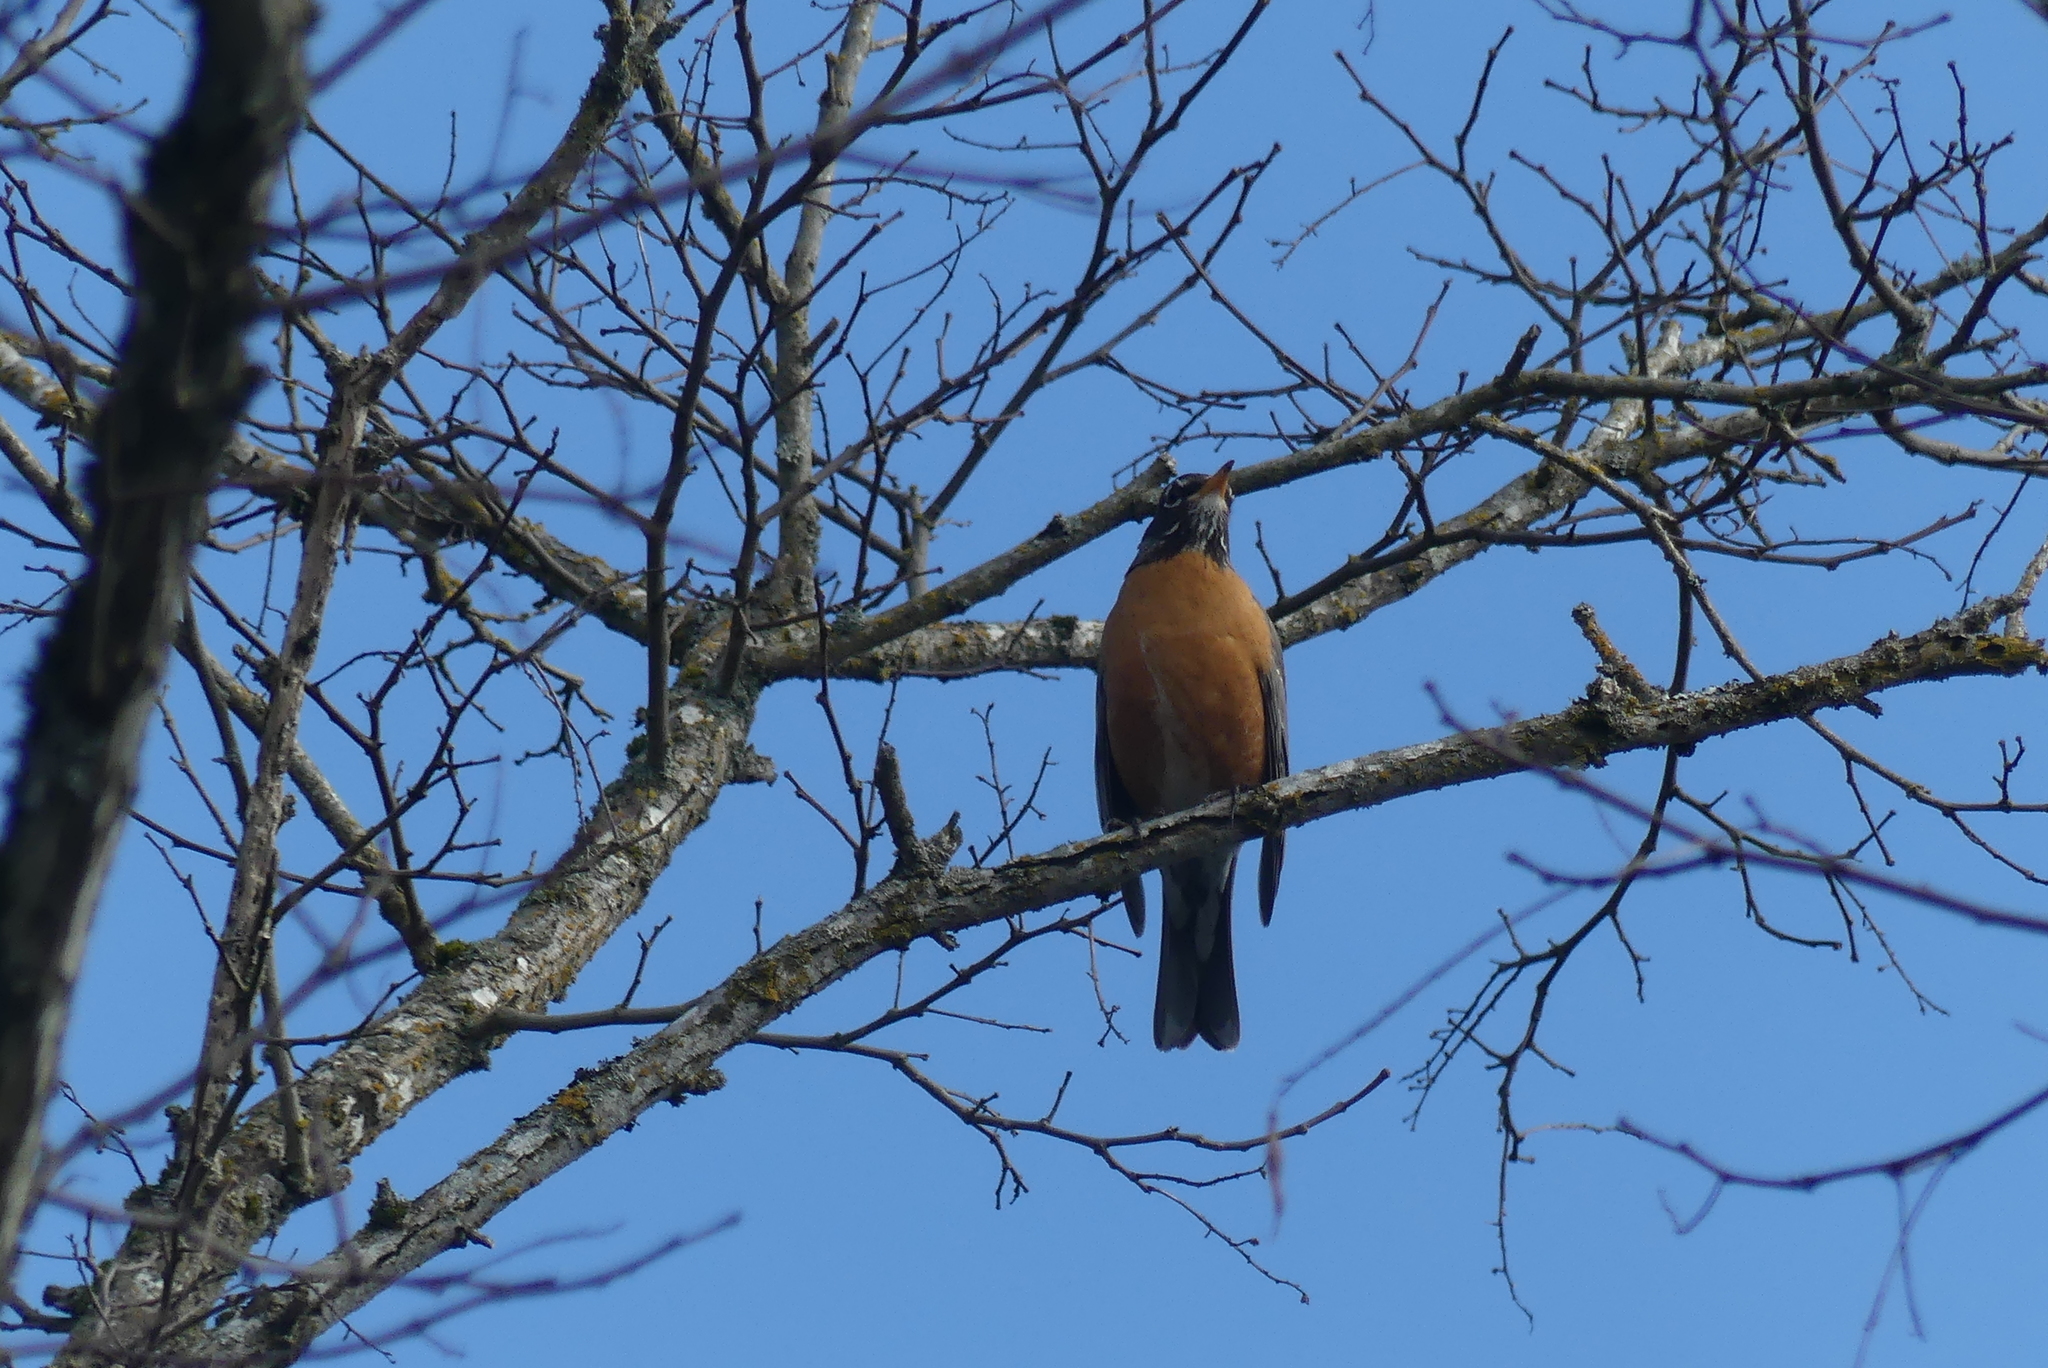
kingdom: Animalia
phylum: Chordata
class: Aves
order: Passeriformes
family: Turdidae
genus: Turdus
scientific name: Turdus migratorius
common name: American robin
